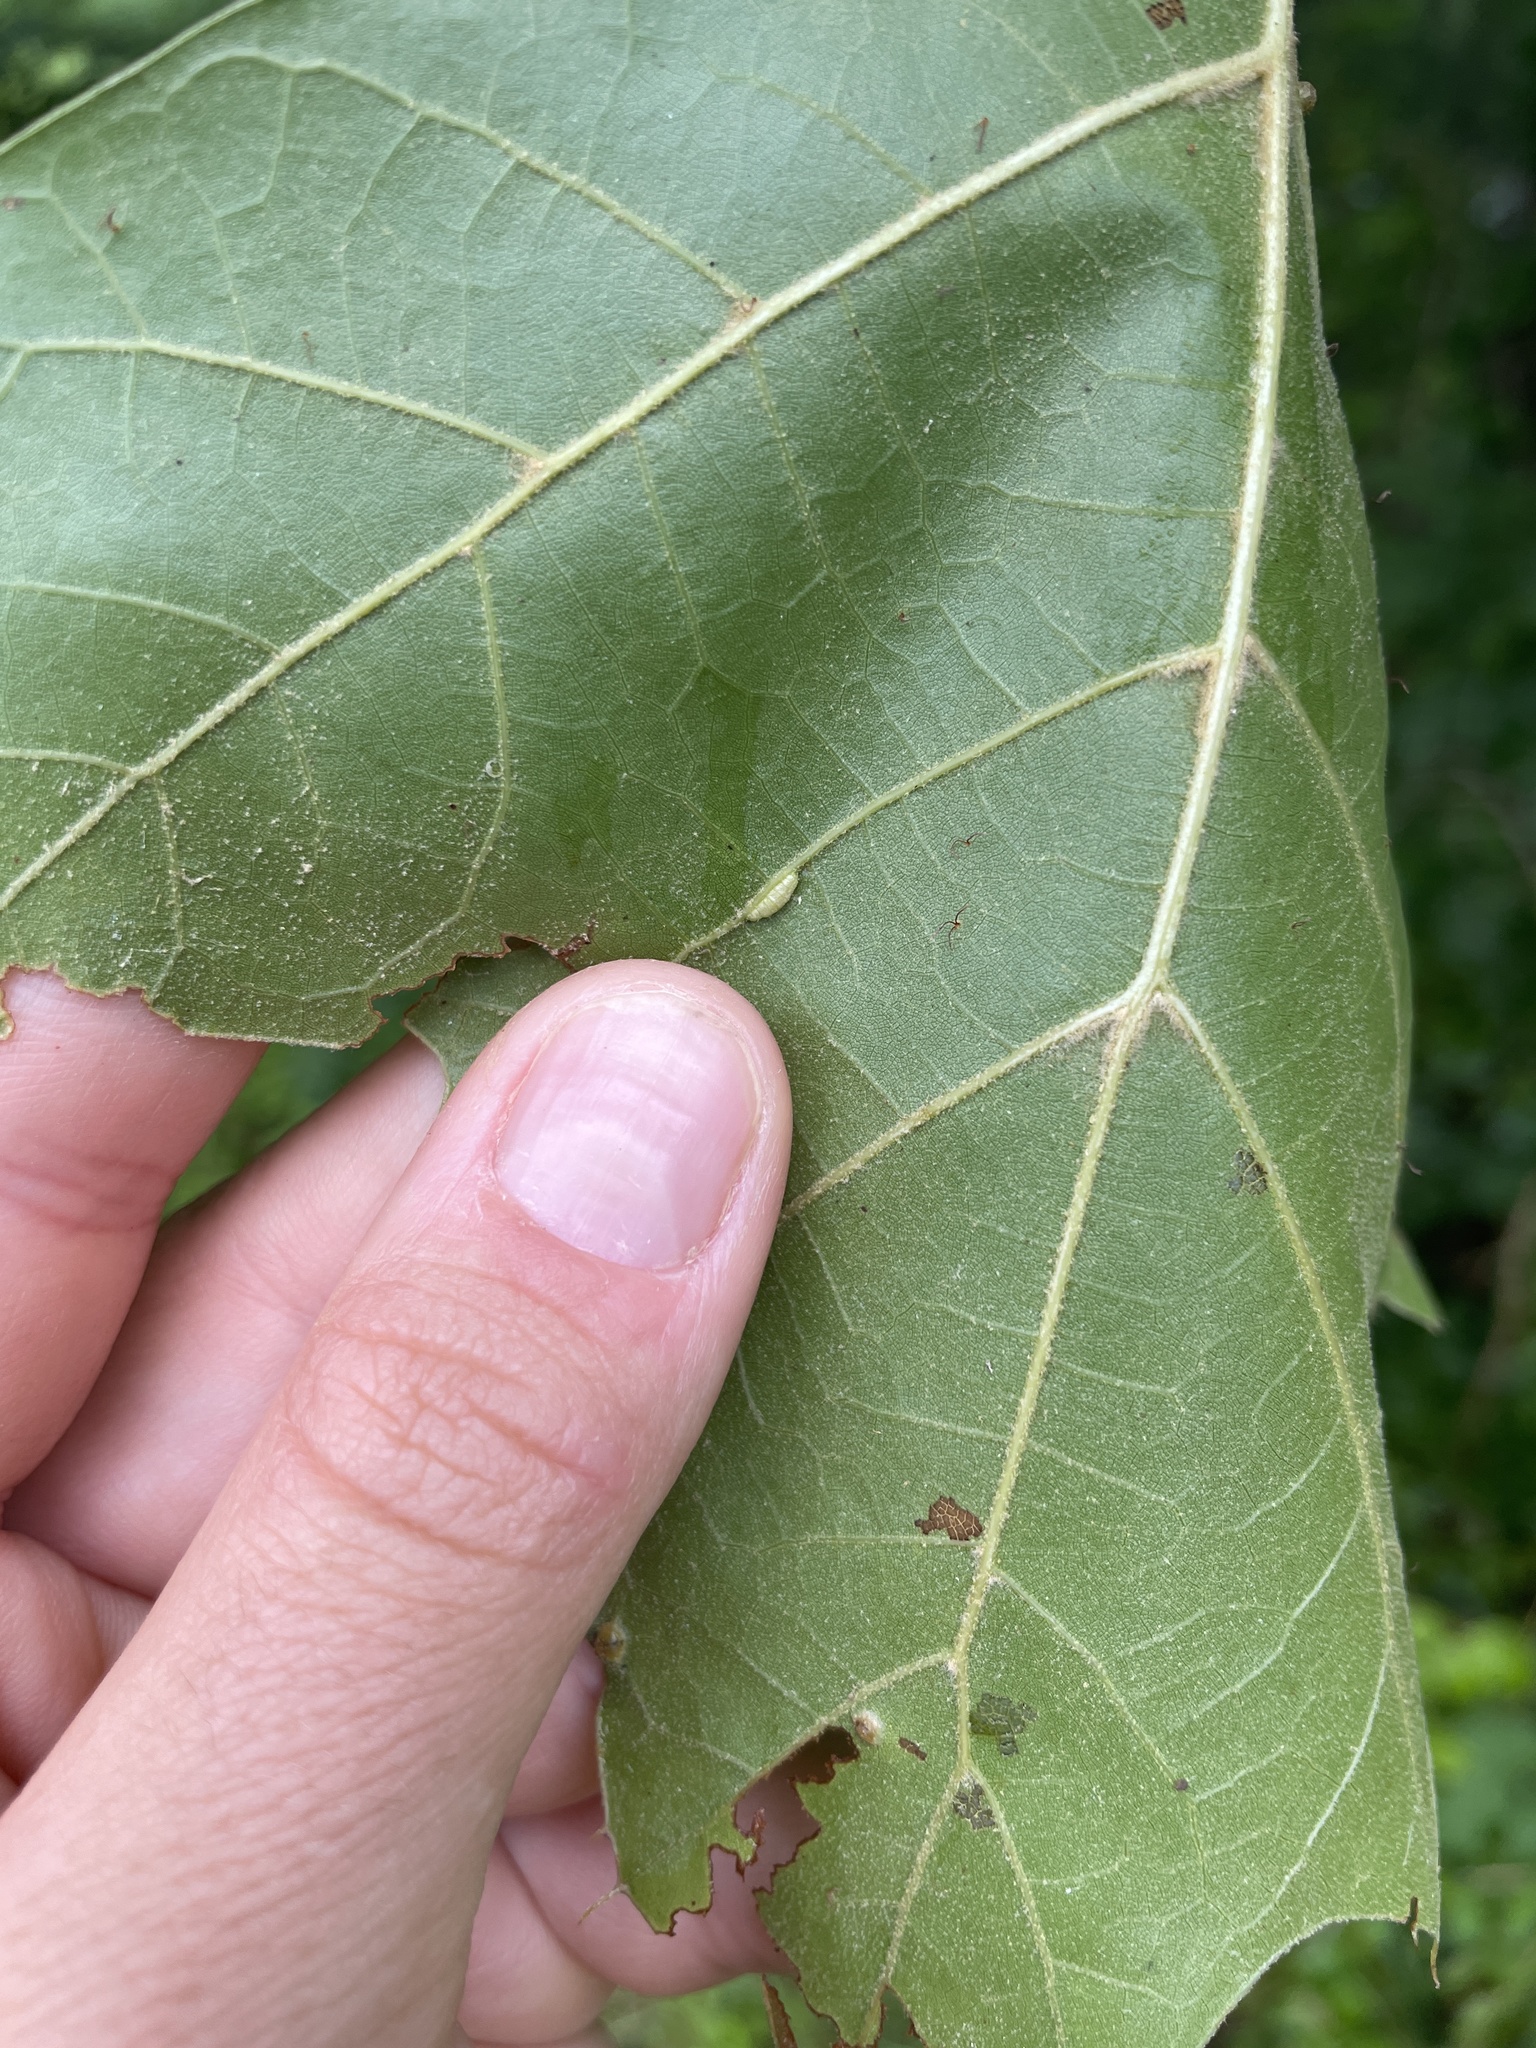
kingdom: Plantae
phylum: Tracheophyta
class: Magnoliopsida
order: Fagales
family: Fagaceae
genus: Quercus
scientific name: Quercus velutina
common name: Black oak
